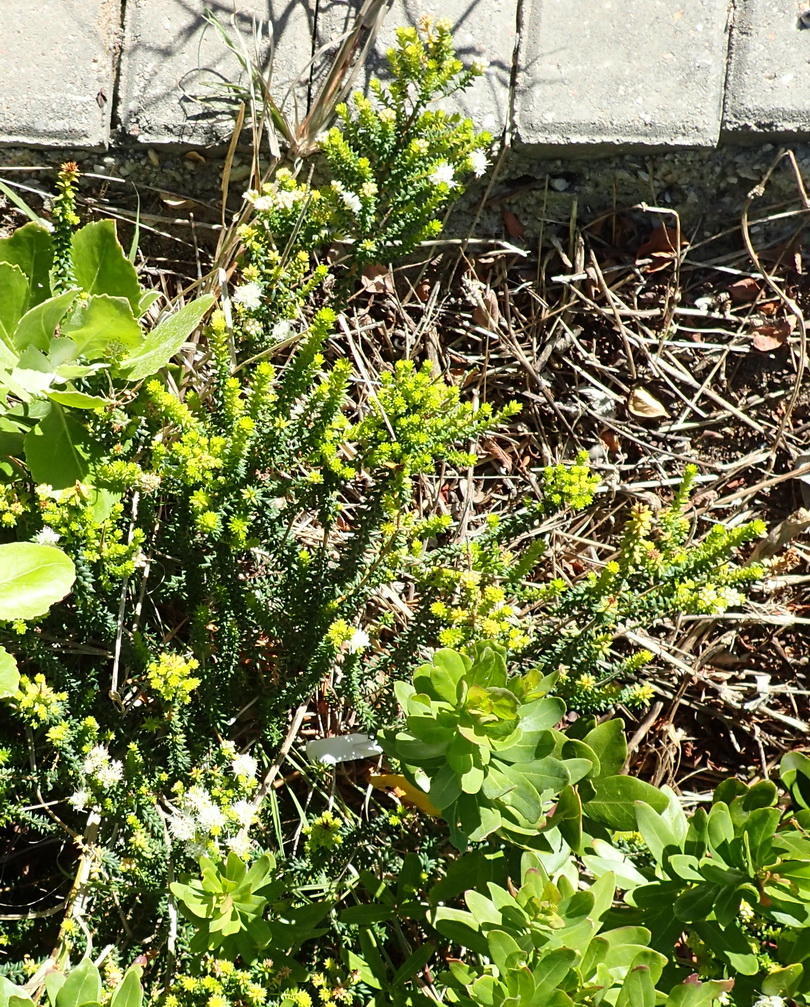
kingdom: Plantae
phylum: Tracheophyta
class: Magnoliopsida
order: Sapindales
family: Rutaceae
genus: Agathosma
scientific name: Agathosma apiculata
